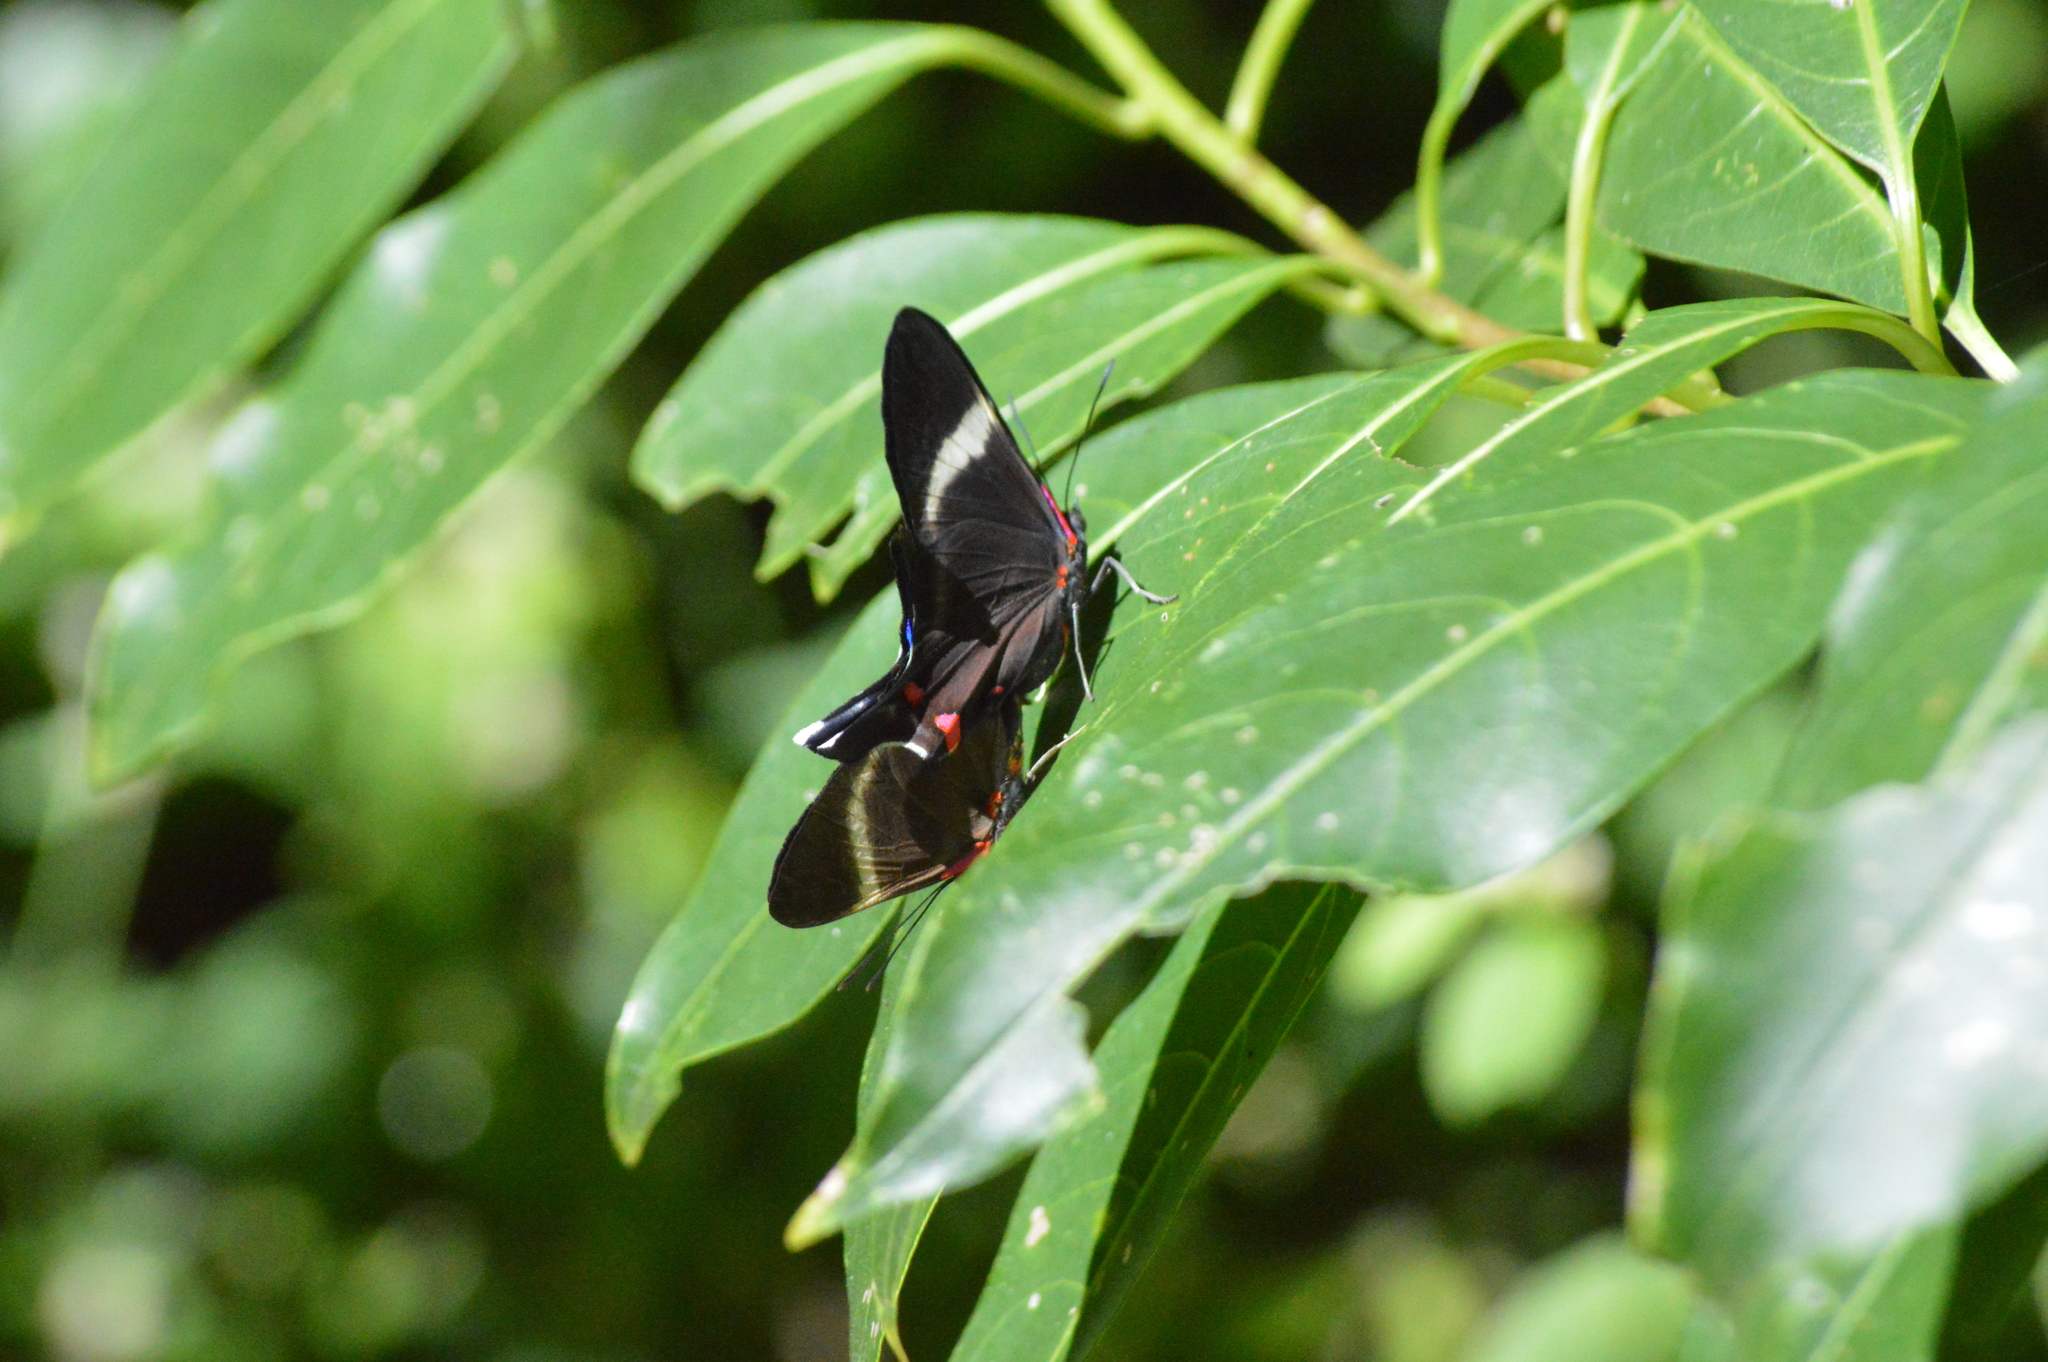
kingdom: Animalia
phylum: Arthropoda
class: Insecta
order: Lepidoptera
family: Riodinidae
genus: Rhetus
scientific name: Rhetus periander
